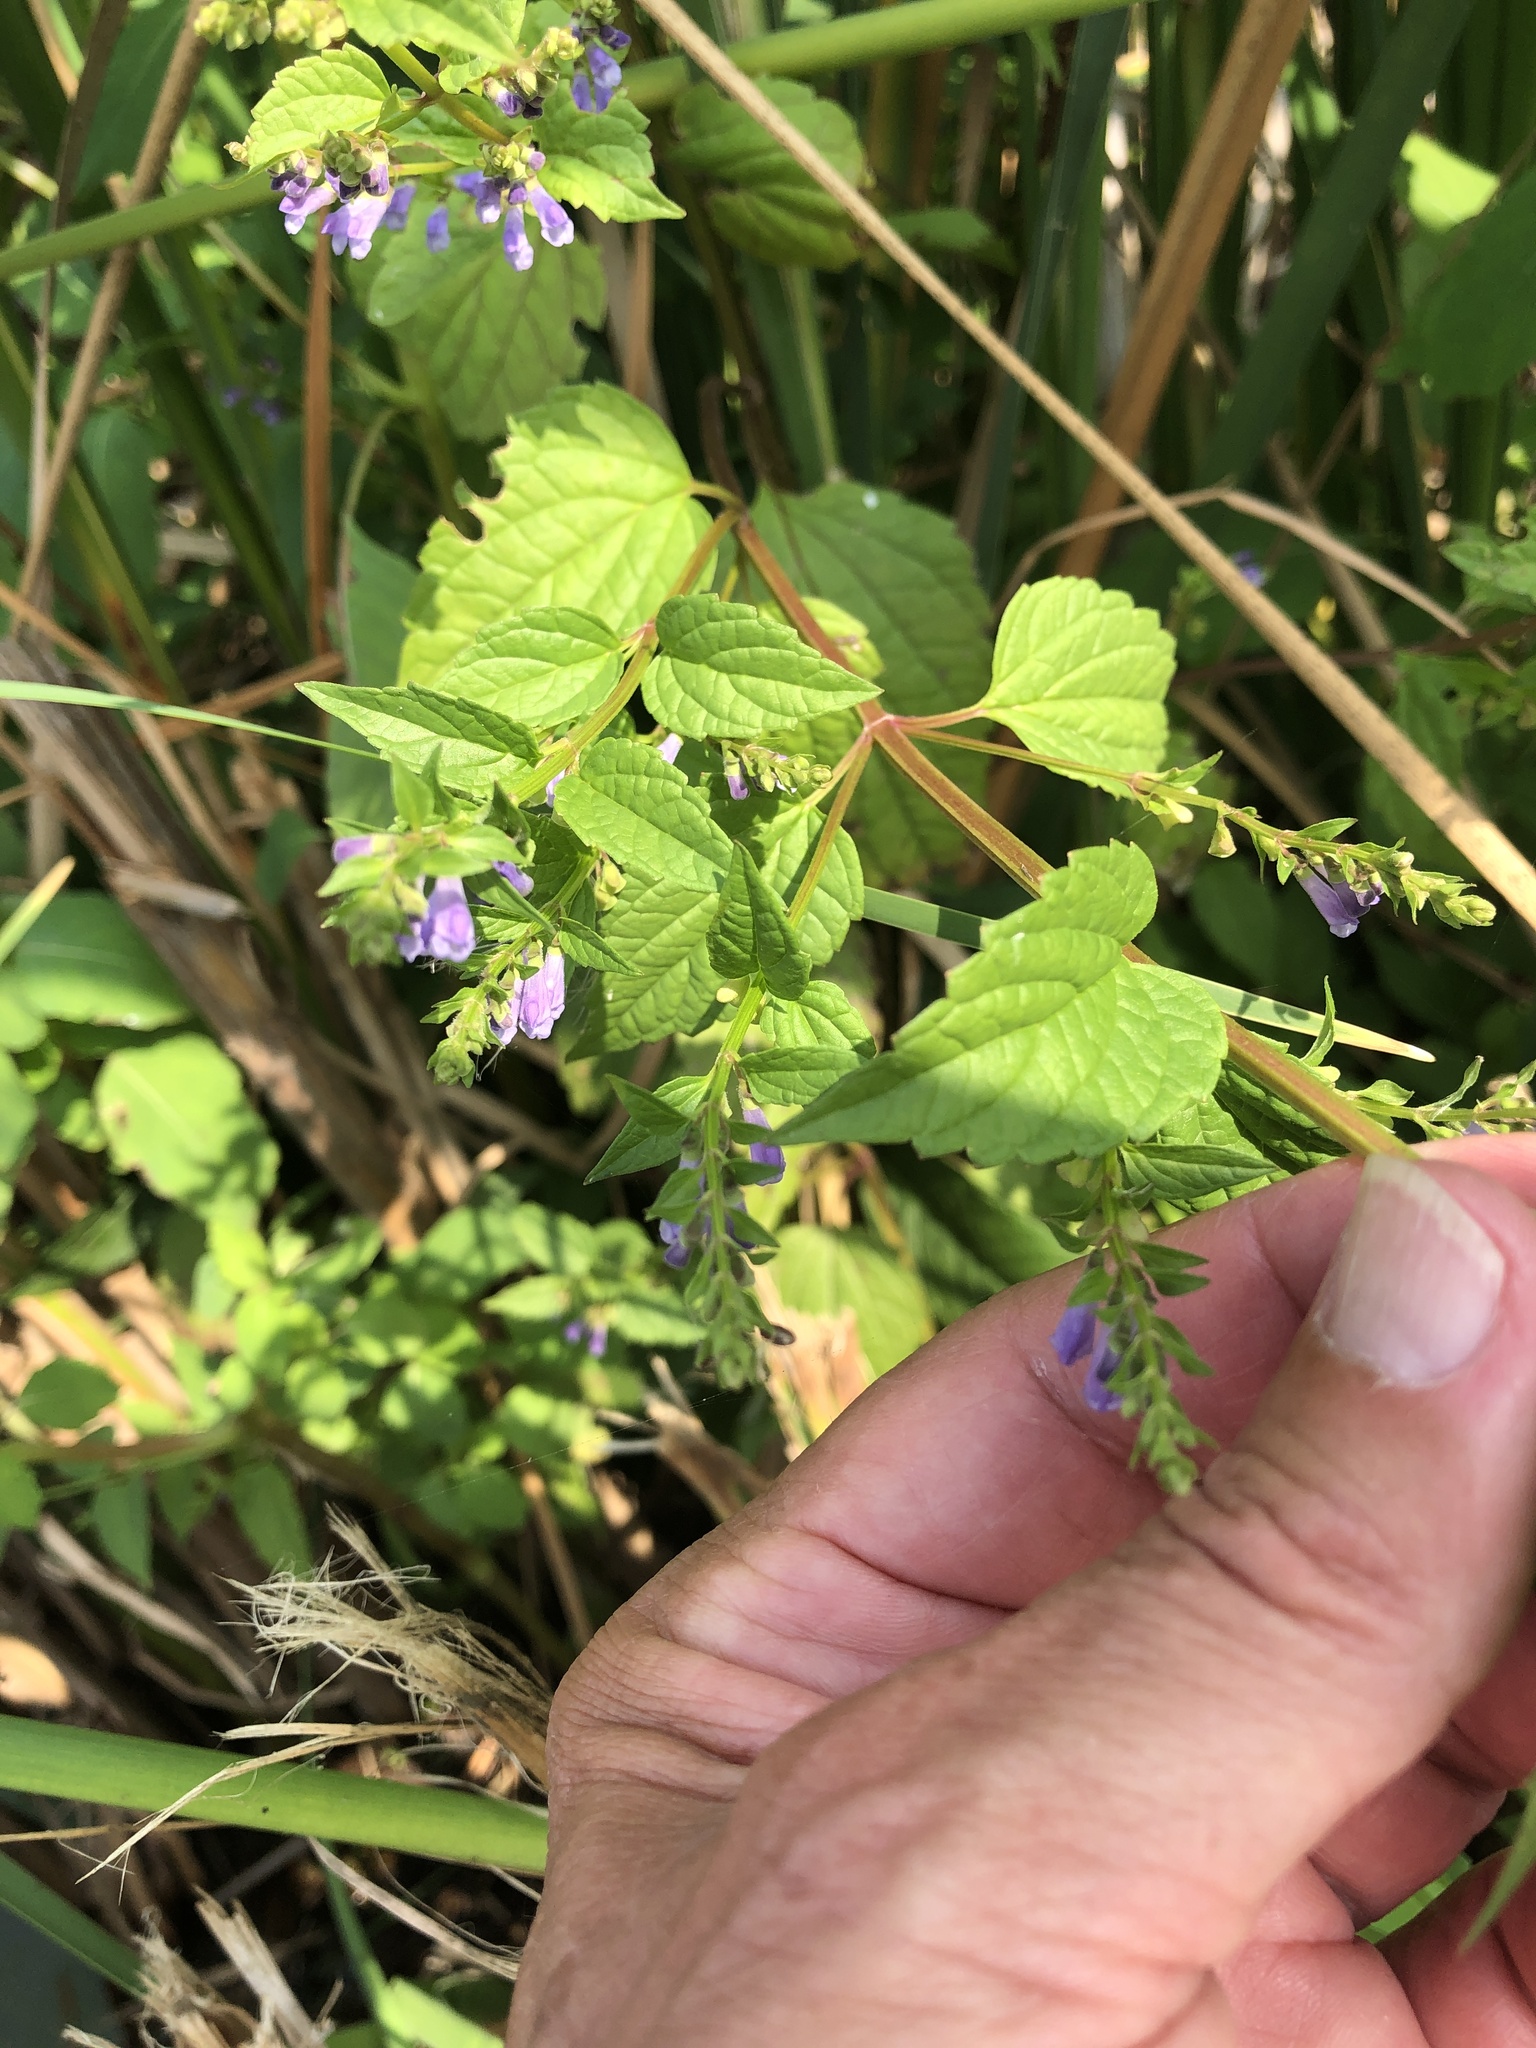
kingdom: Plantae
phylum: Tracheophyta
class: Magnoliopsida
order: Lamiales
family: Lamiaceae
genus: Scutellaria
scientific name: Scutellaria lateriflora
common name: Blue skullcap
